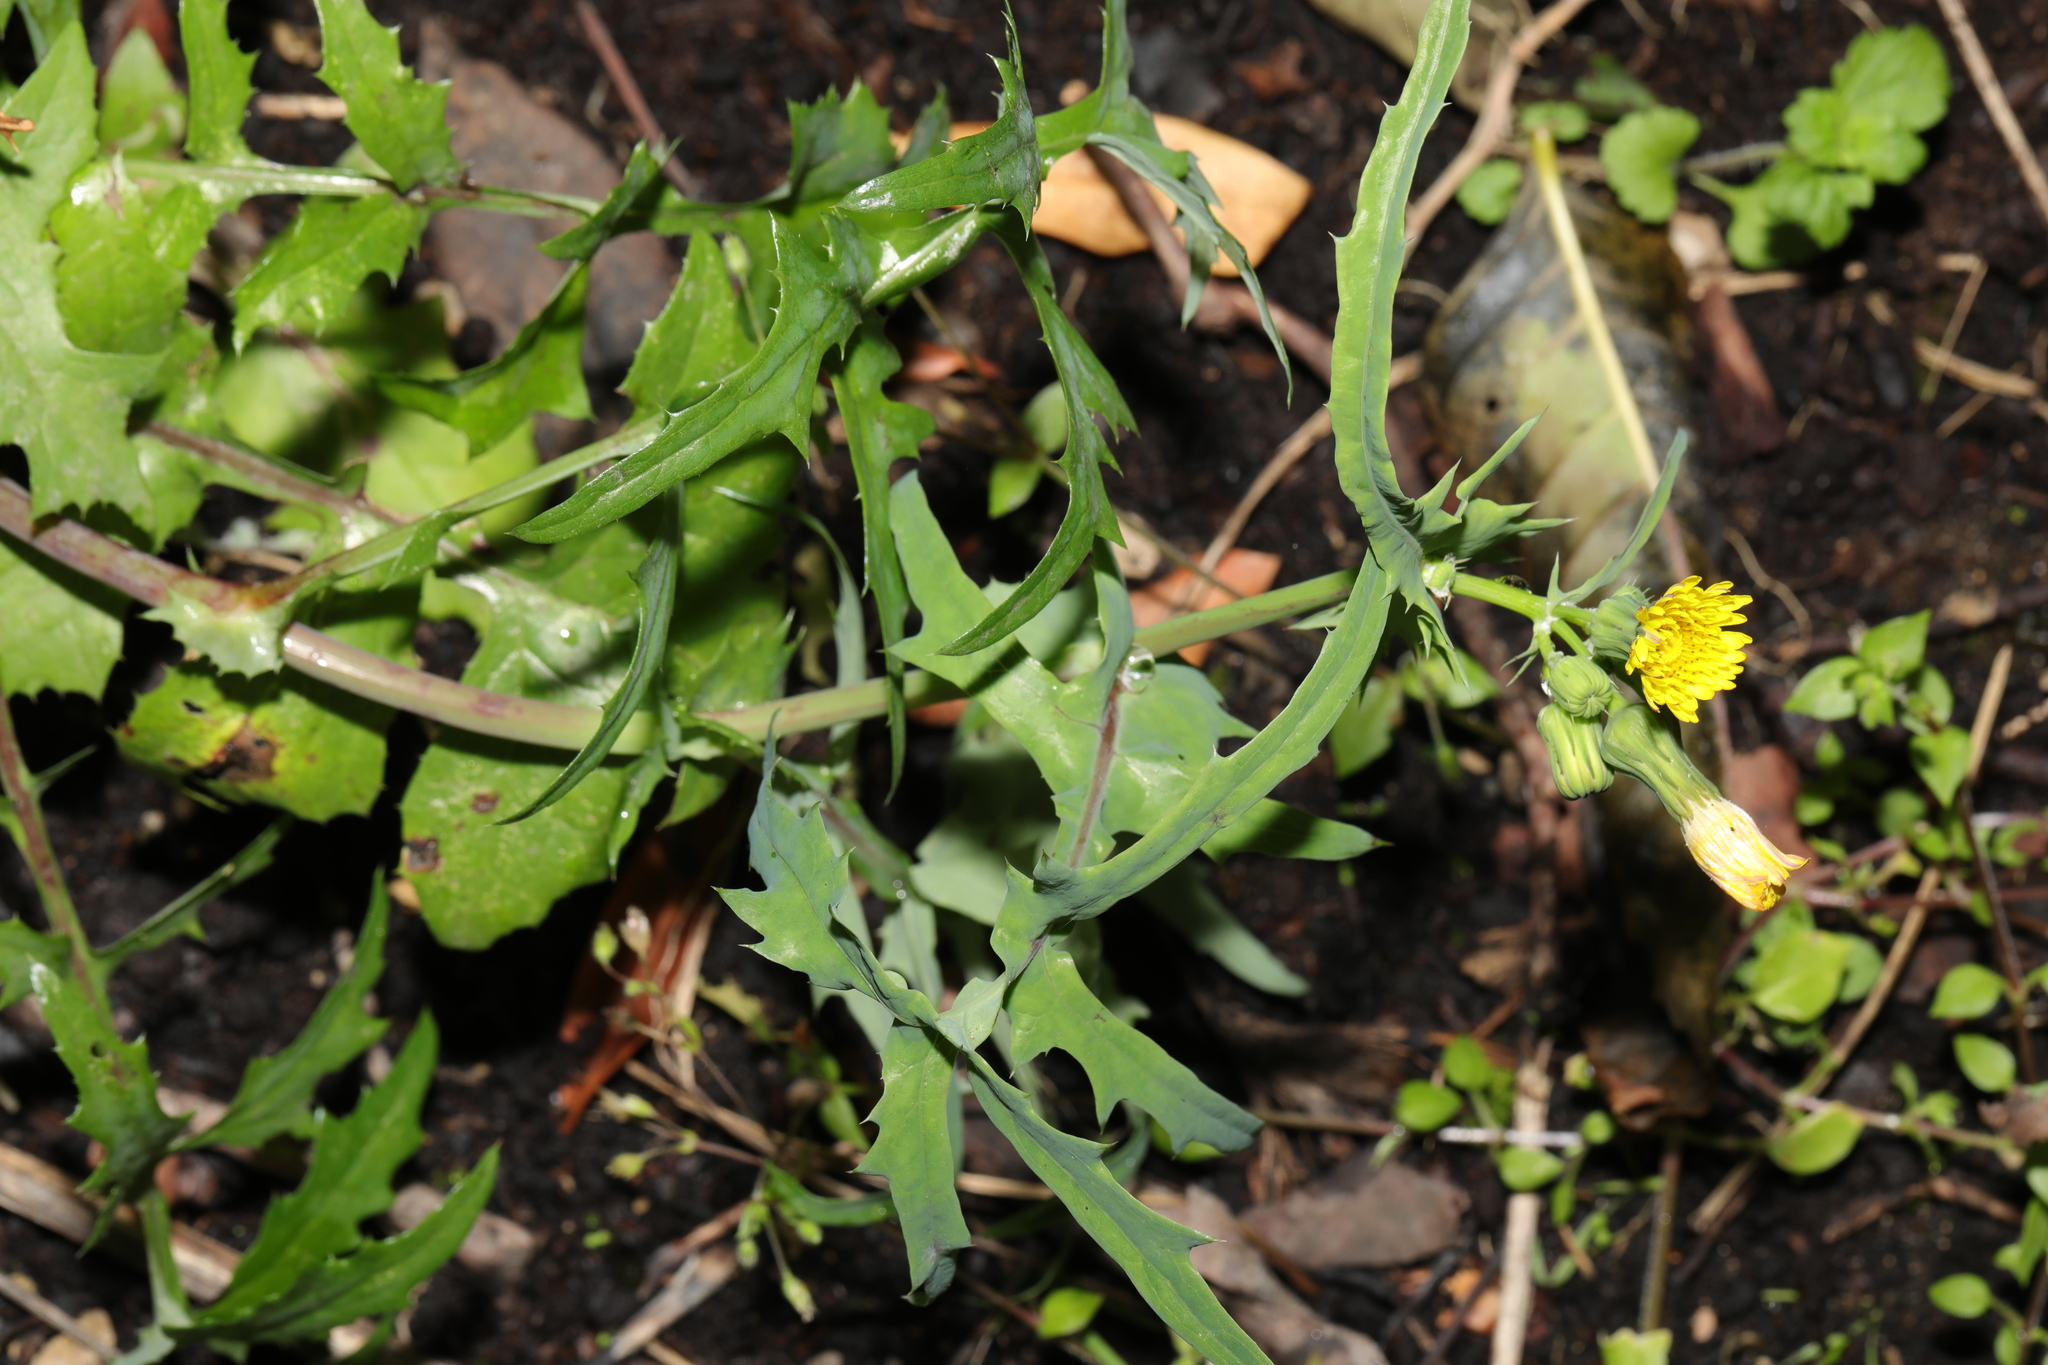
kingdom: Plantae
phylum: Tracheophyta
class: Magnoliopsida
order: Asterales
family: Asteraceae
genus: Sonchus
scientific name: Sonchus oleraceus
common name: Common sowthistle
